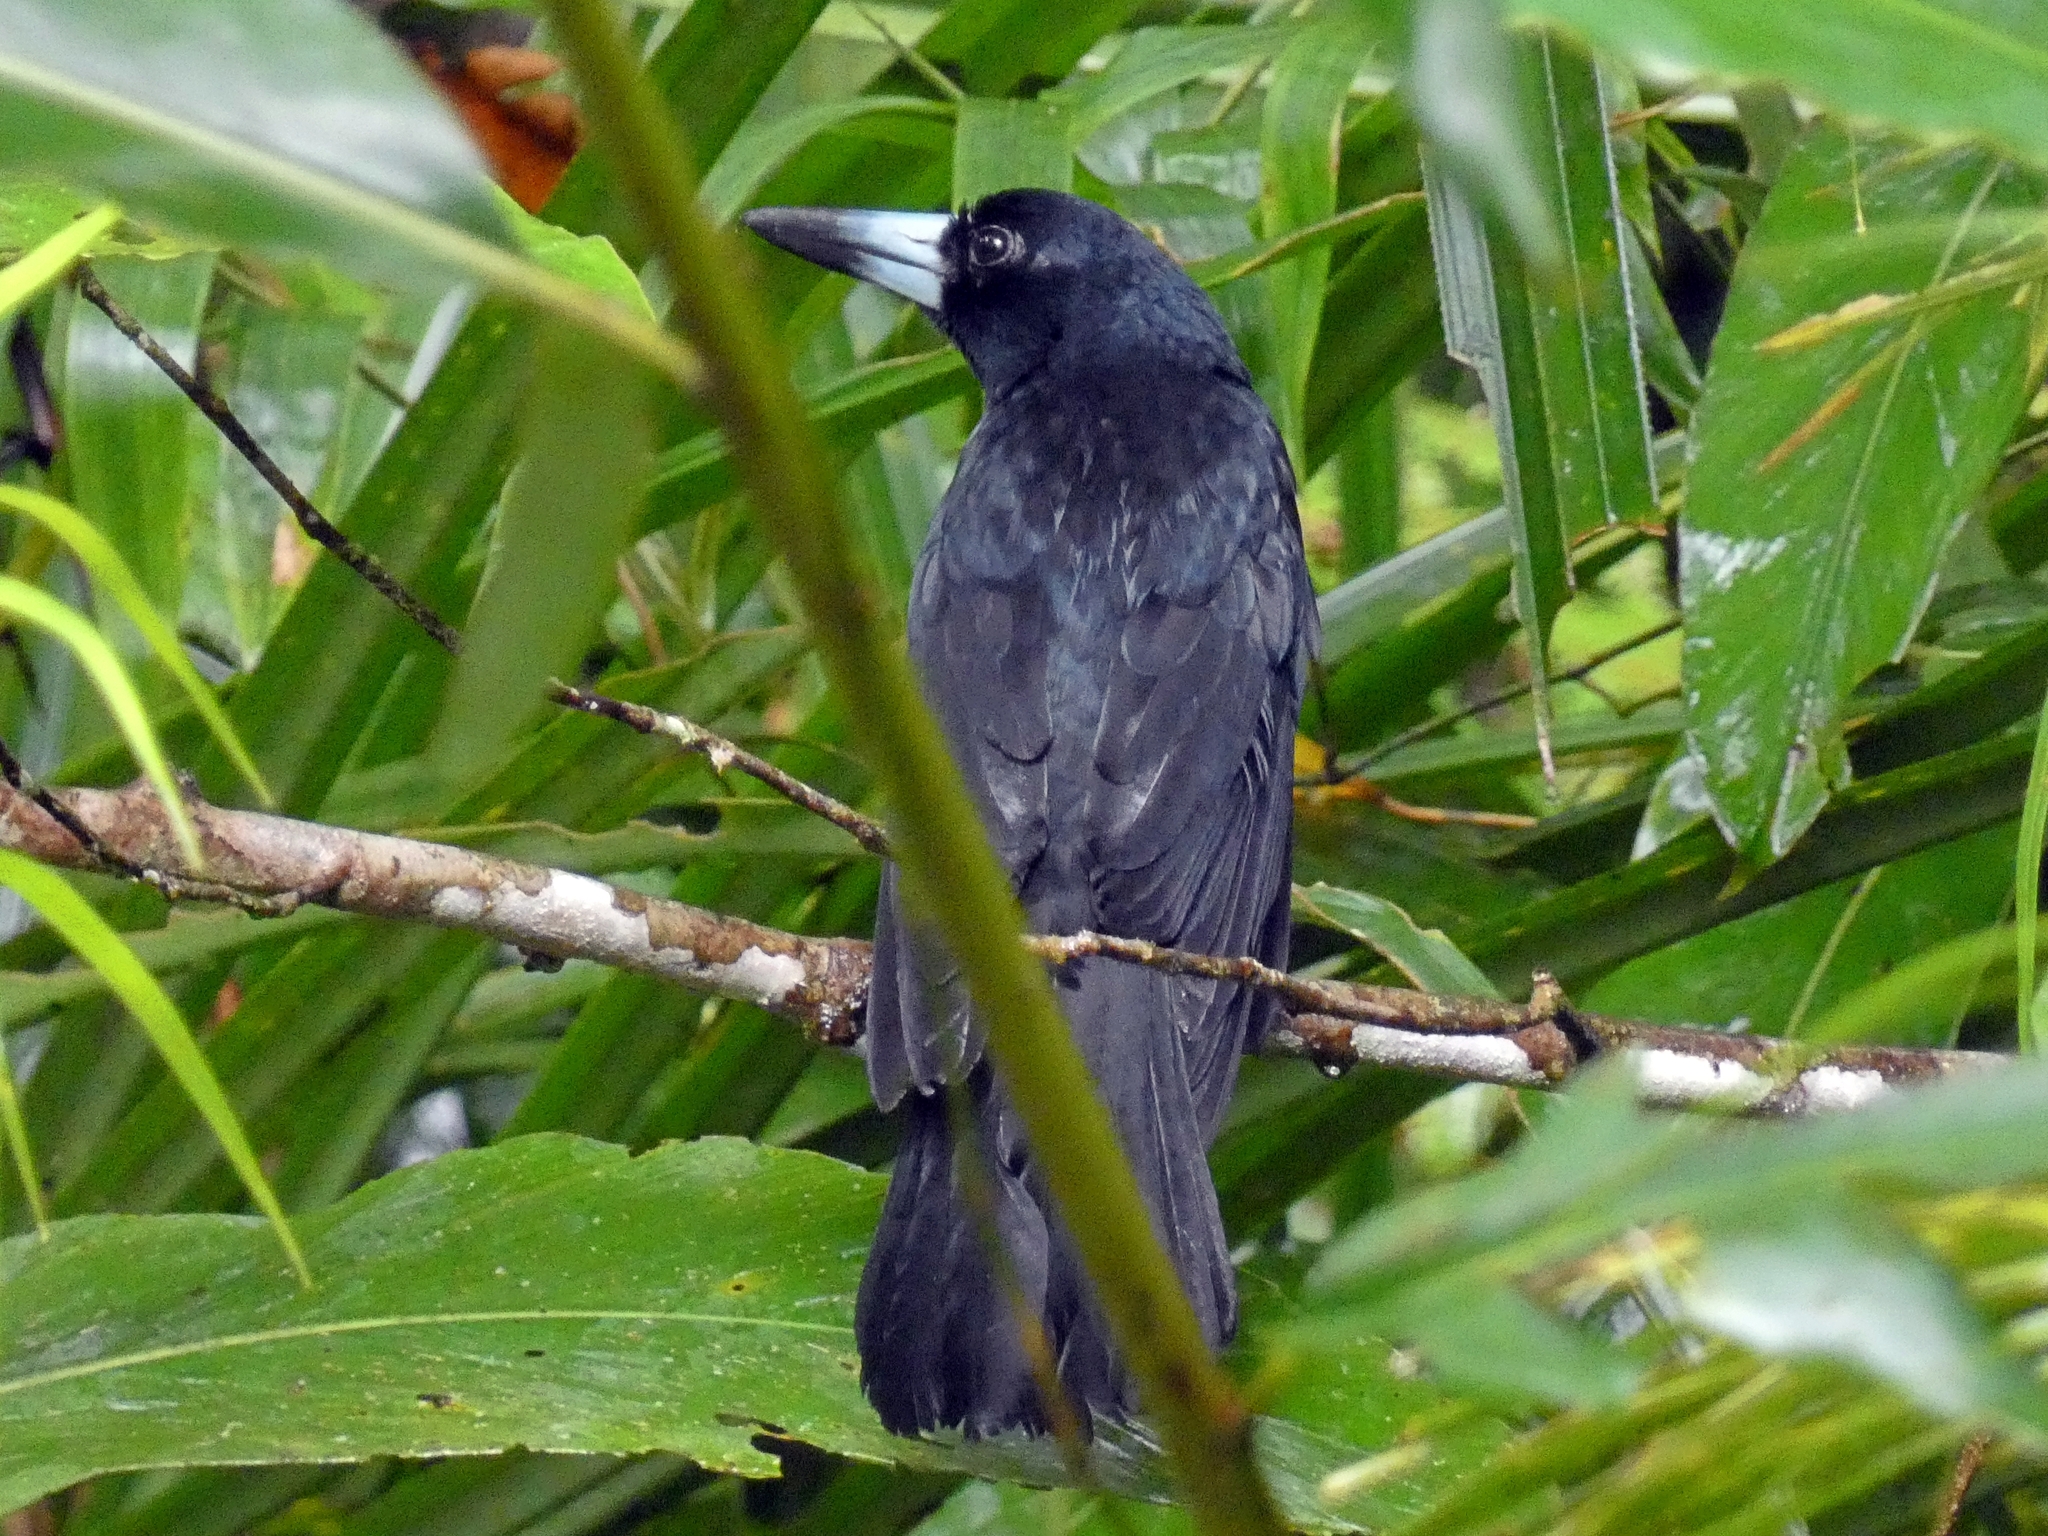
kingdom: Animalia
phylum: Chordata
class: Aves
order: Passeriformes
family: Artamidae
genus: Melloria
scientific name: Melloria quoyi
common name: Black butcherbird
